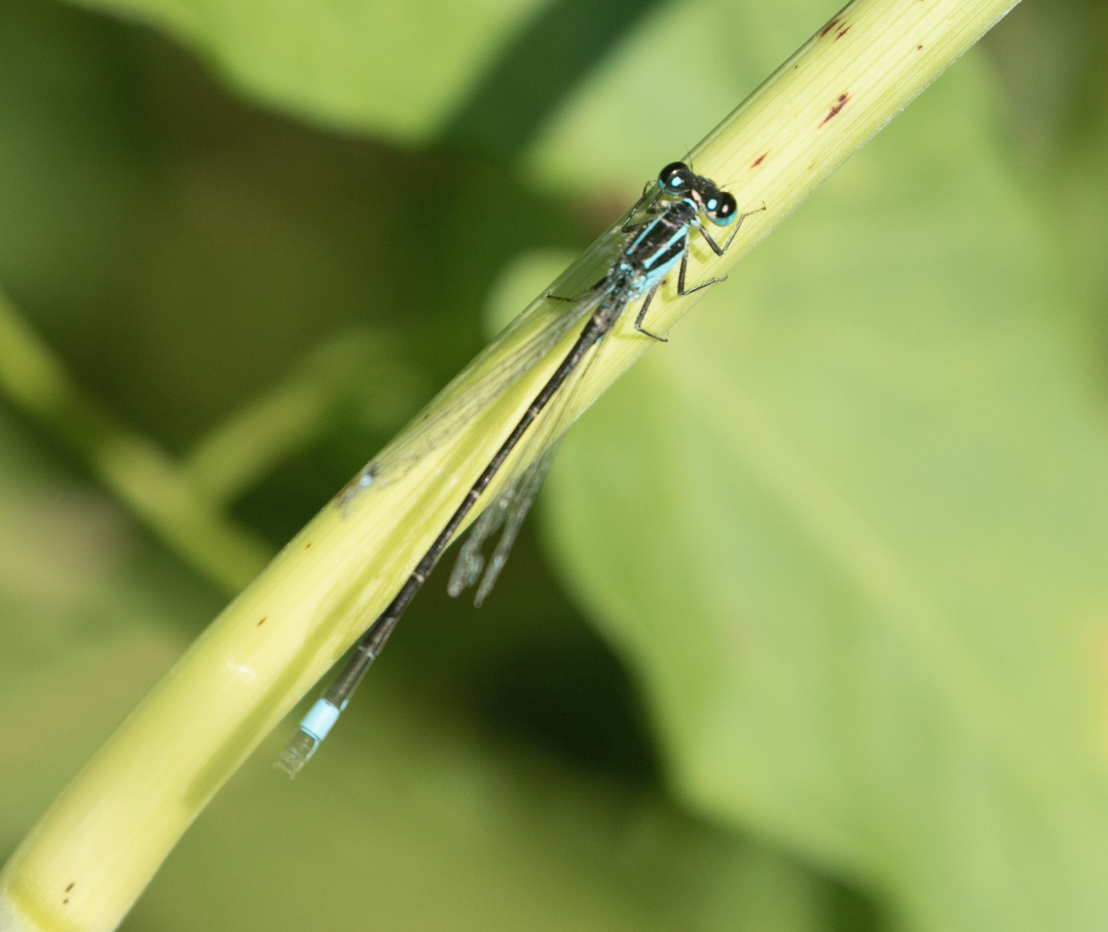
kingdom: Animalia
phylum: Arthropoda
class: Insecta
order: Odonata
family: Coenagrionidae
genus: Ischnura
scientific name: Ischnura elegans
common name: Blue-tailed damselfly
